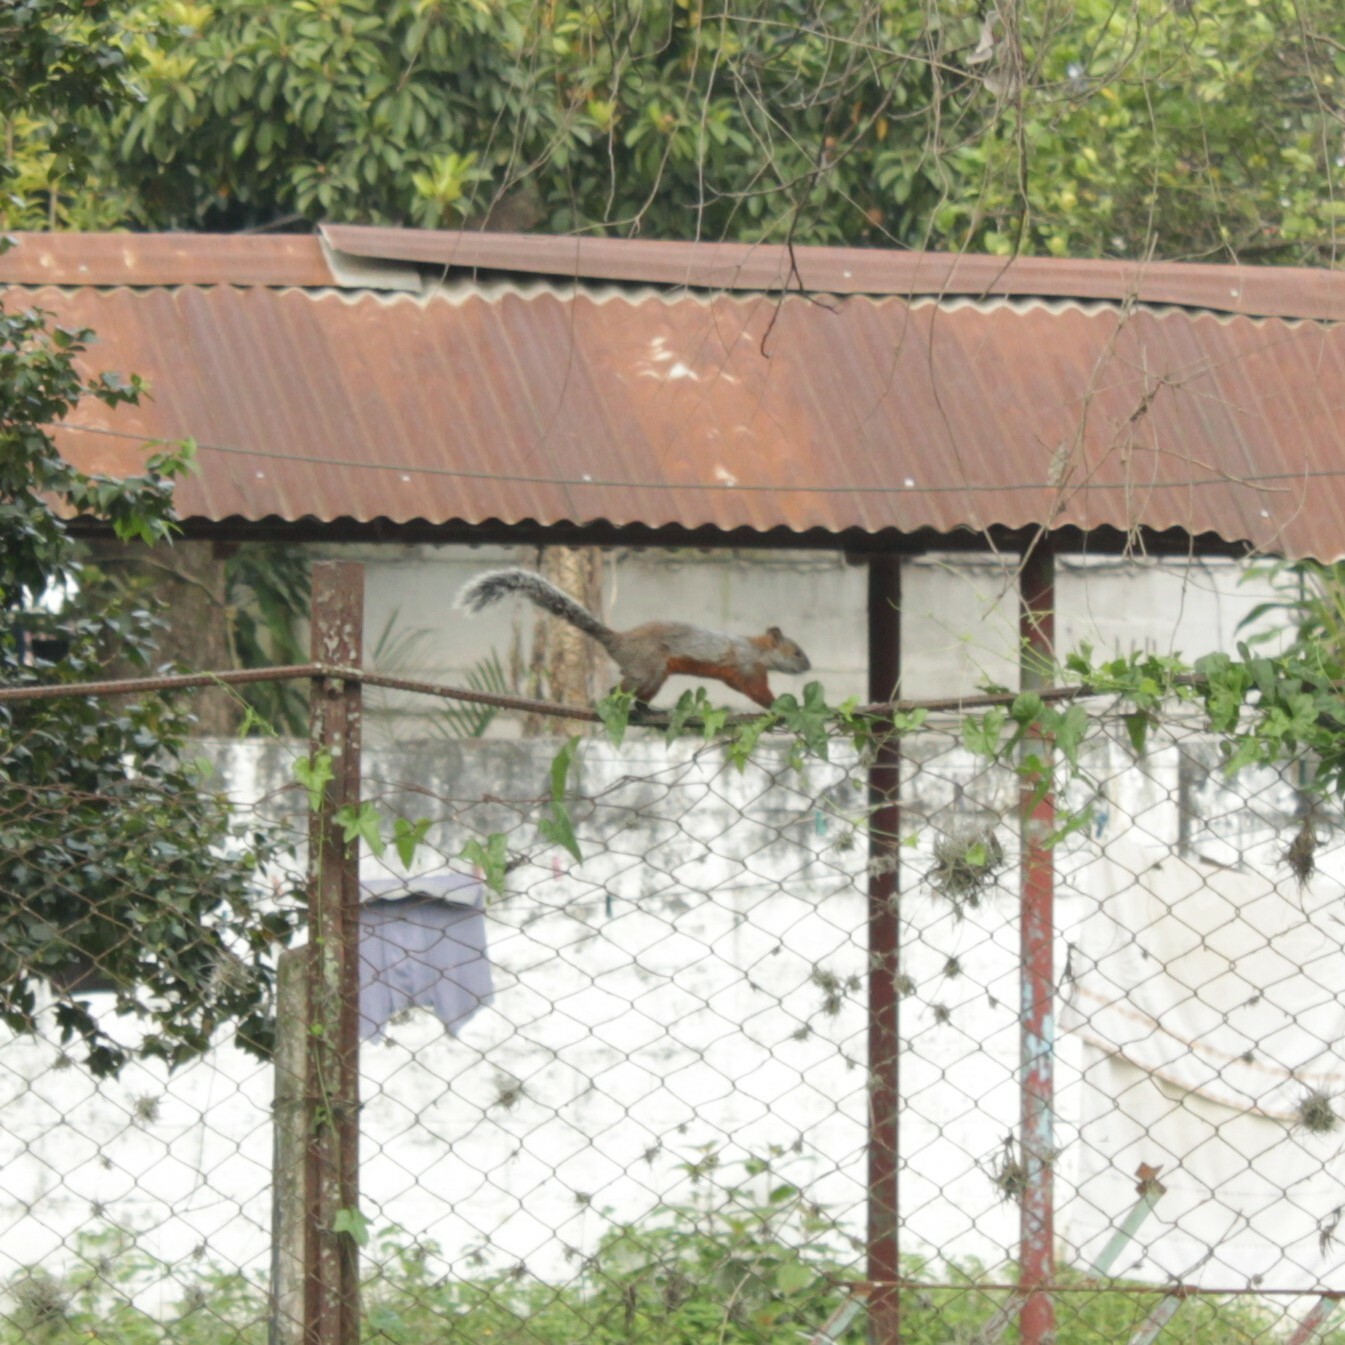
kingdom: Animalia
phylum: Chordata
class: Mammalia
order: Rodentia
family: Sciuridae
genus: Sciurus
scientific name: Sciurus aureogaster
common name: Red-bellied squirrel
